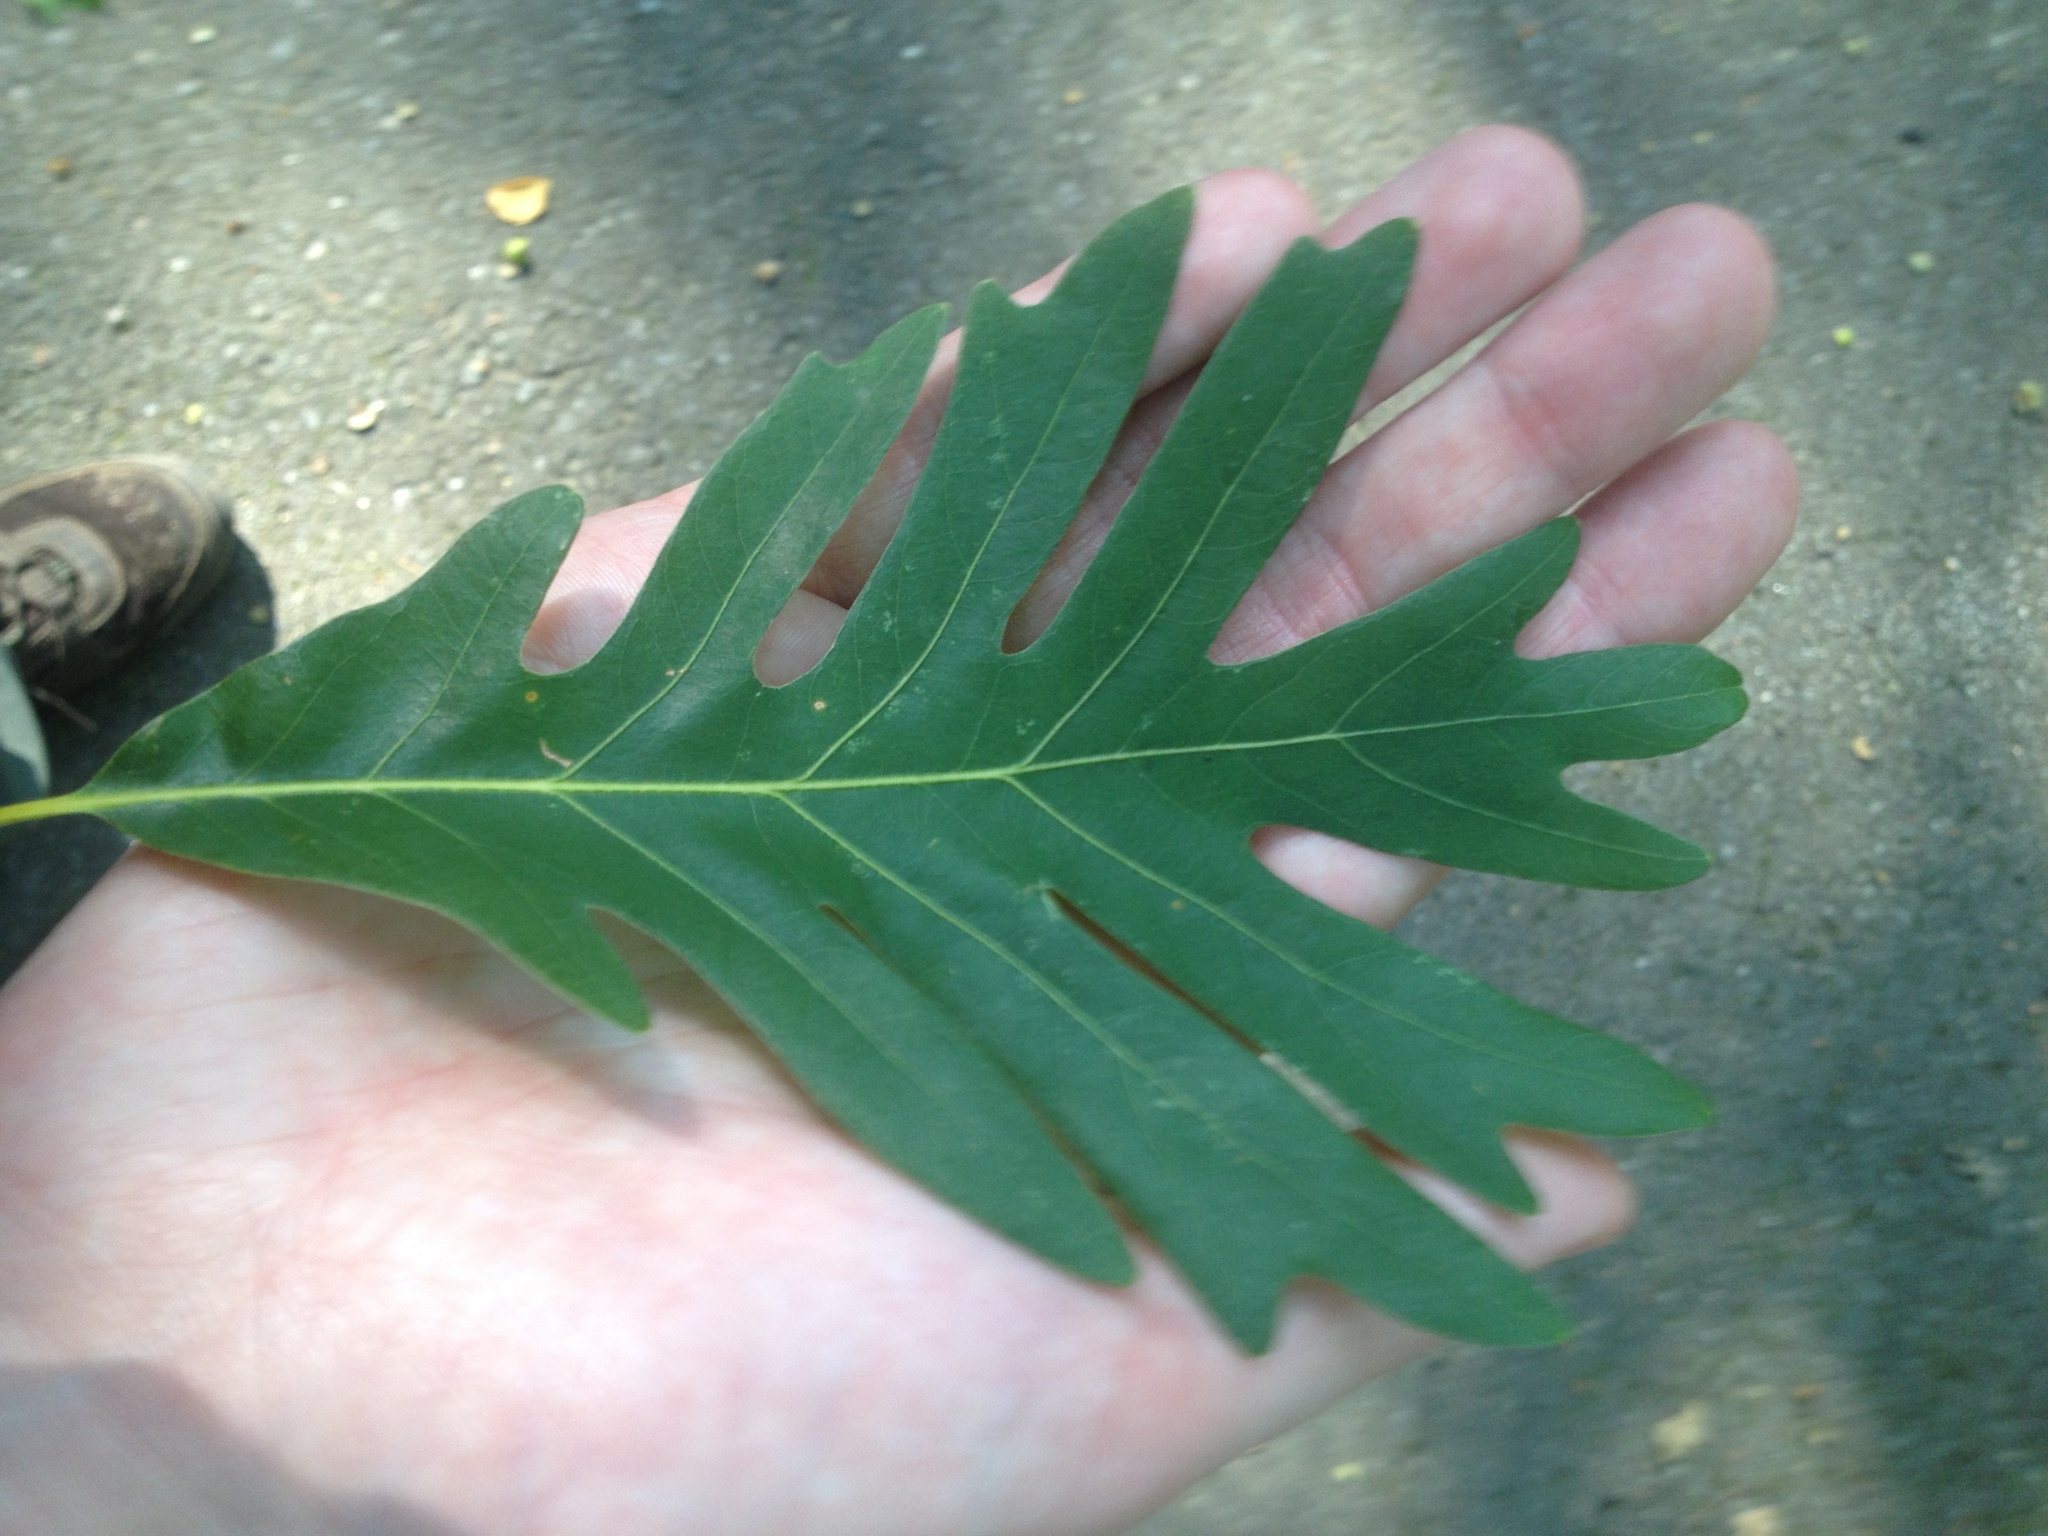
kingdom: Plantae
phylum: Tracheophyta
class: Magnoliopsida
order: Fagales
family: Fagaceae
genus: Quercus
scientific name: Quercus alba
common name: White oak
